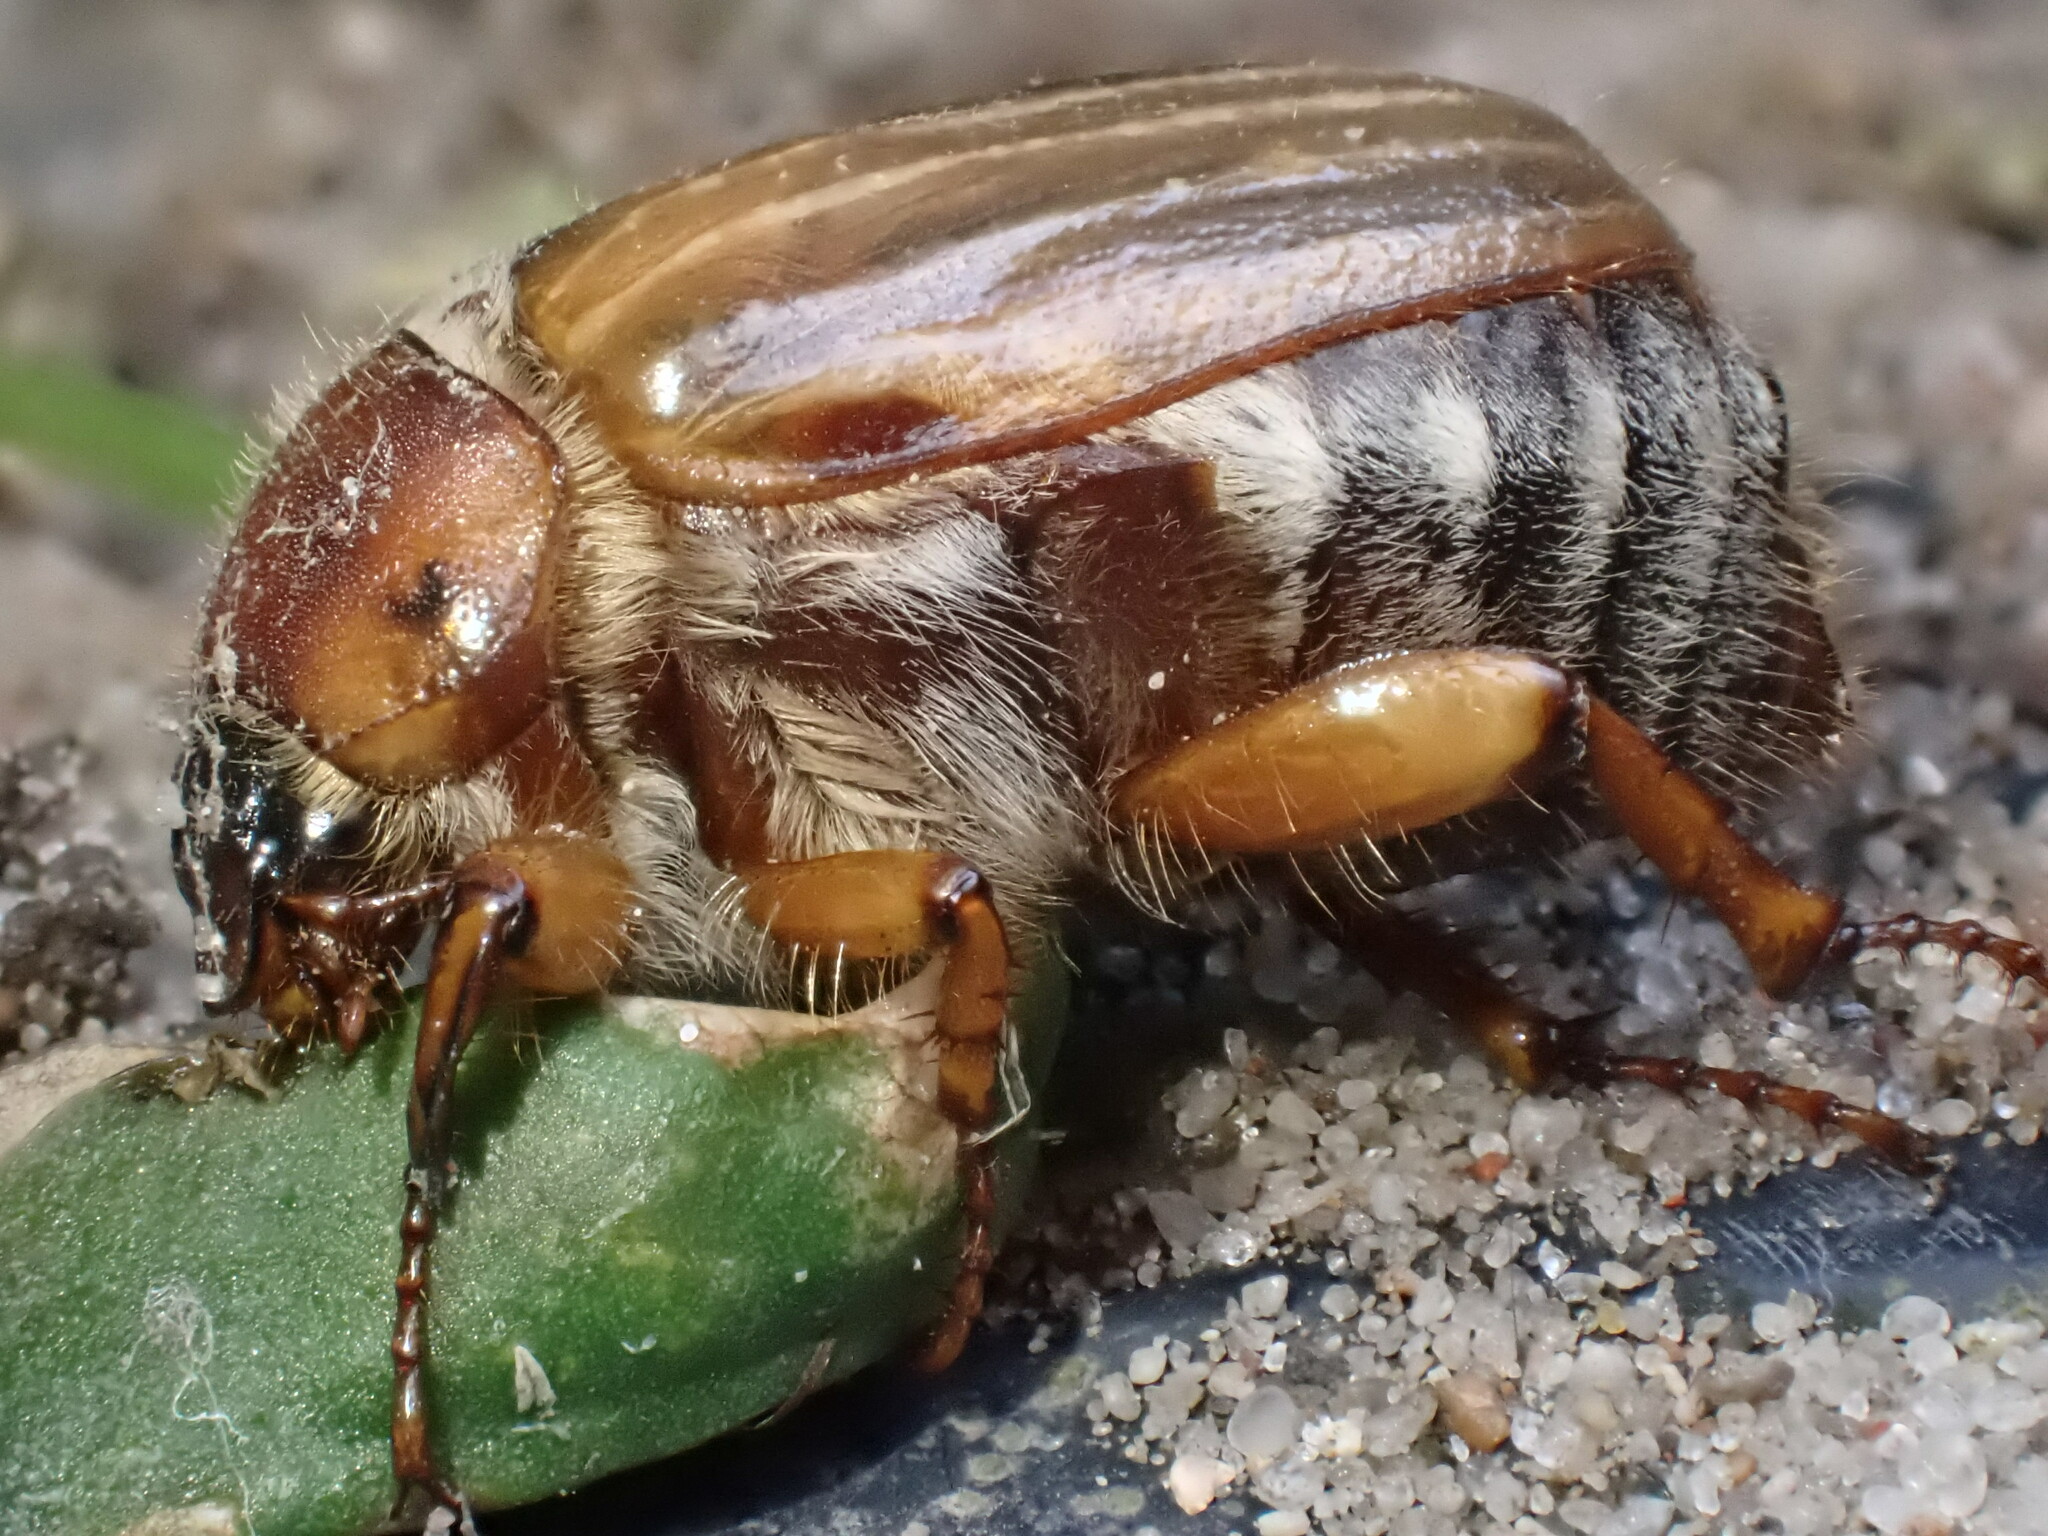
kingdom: Animalia
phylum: Arthropoda
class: Insecta
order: Coleoptera
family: Scarabaeidae
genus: Amphimallon
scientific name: Amphimallon solstitiale
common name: Summer chafer
